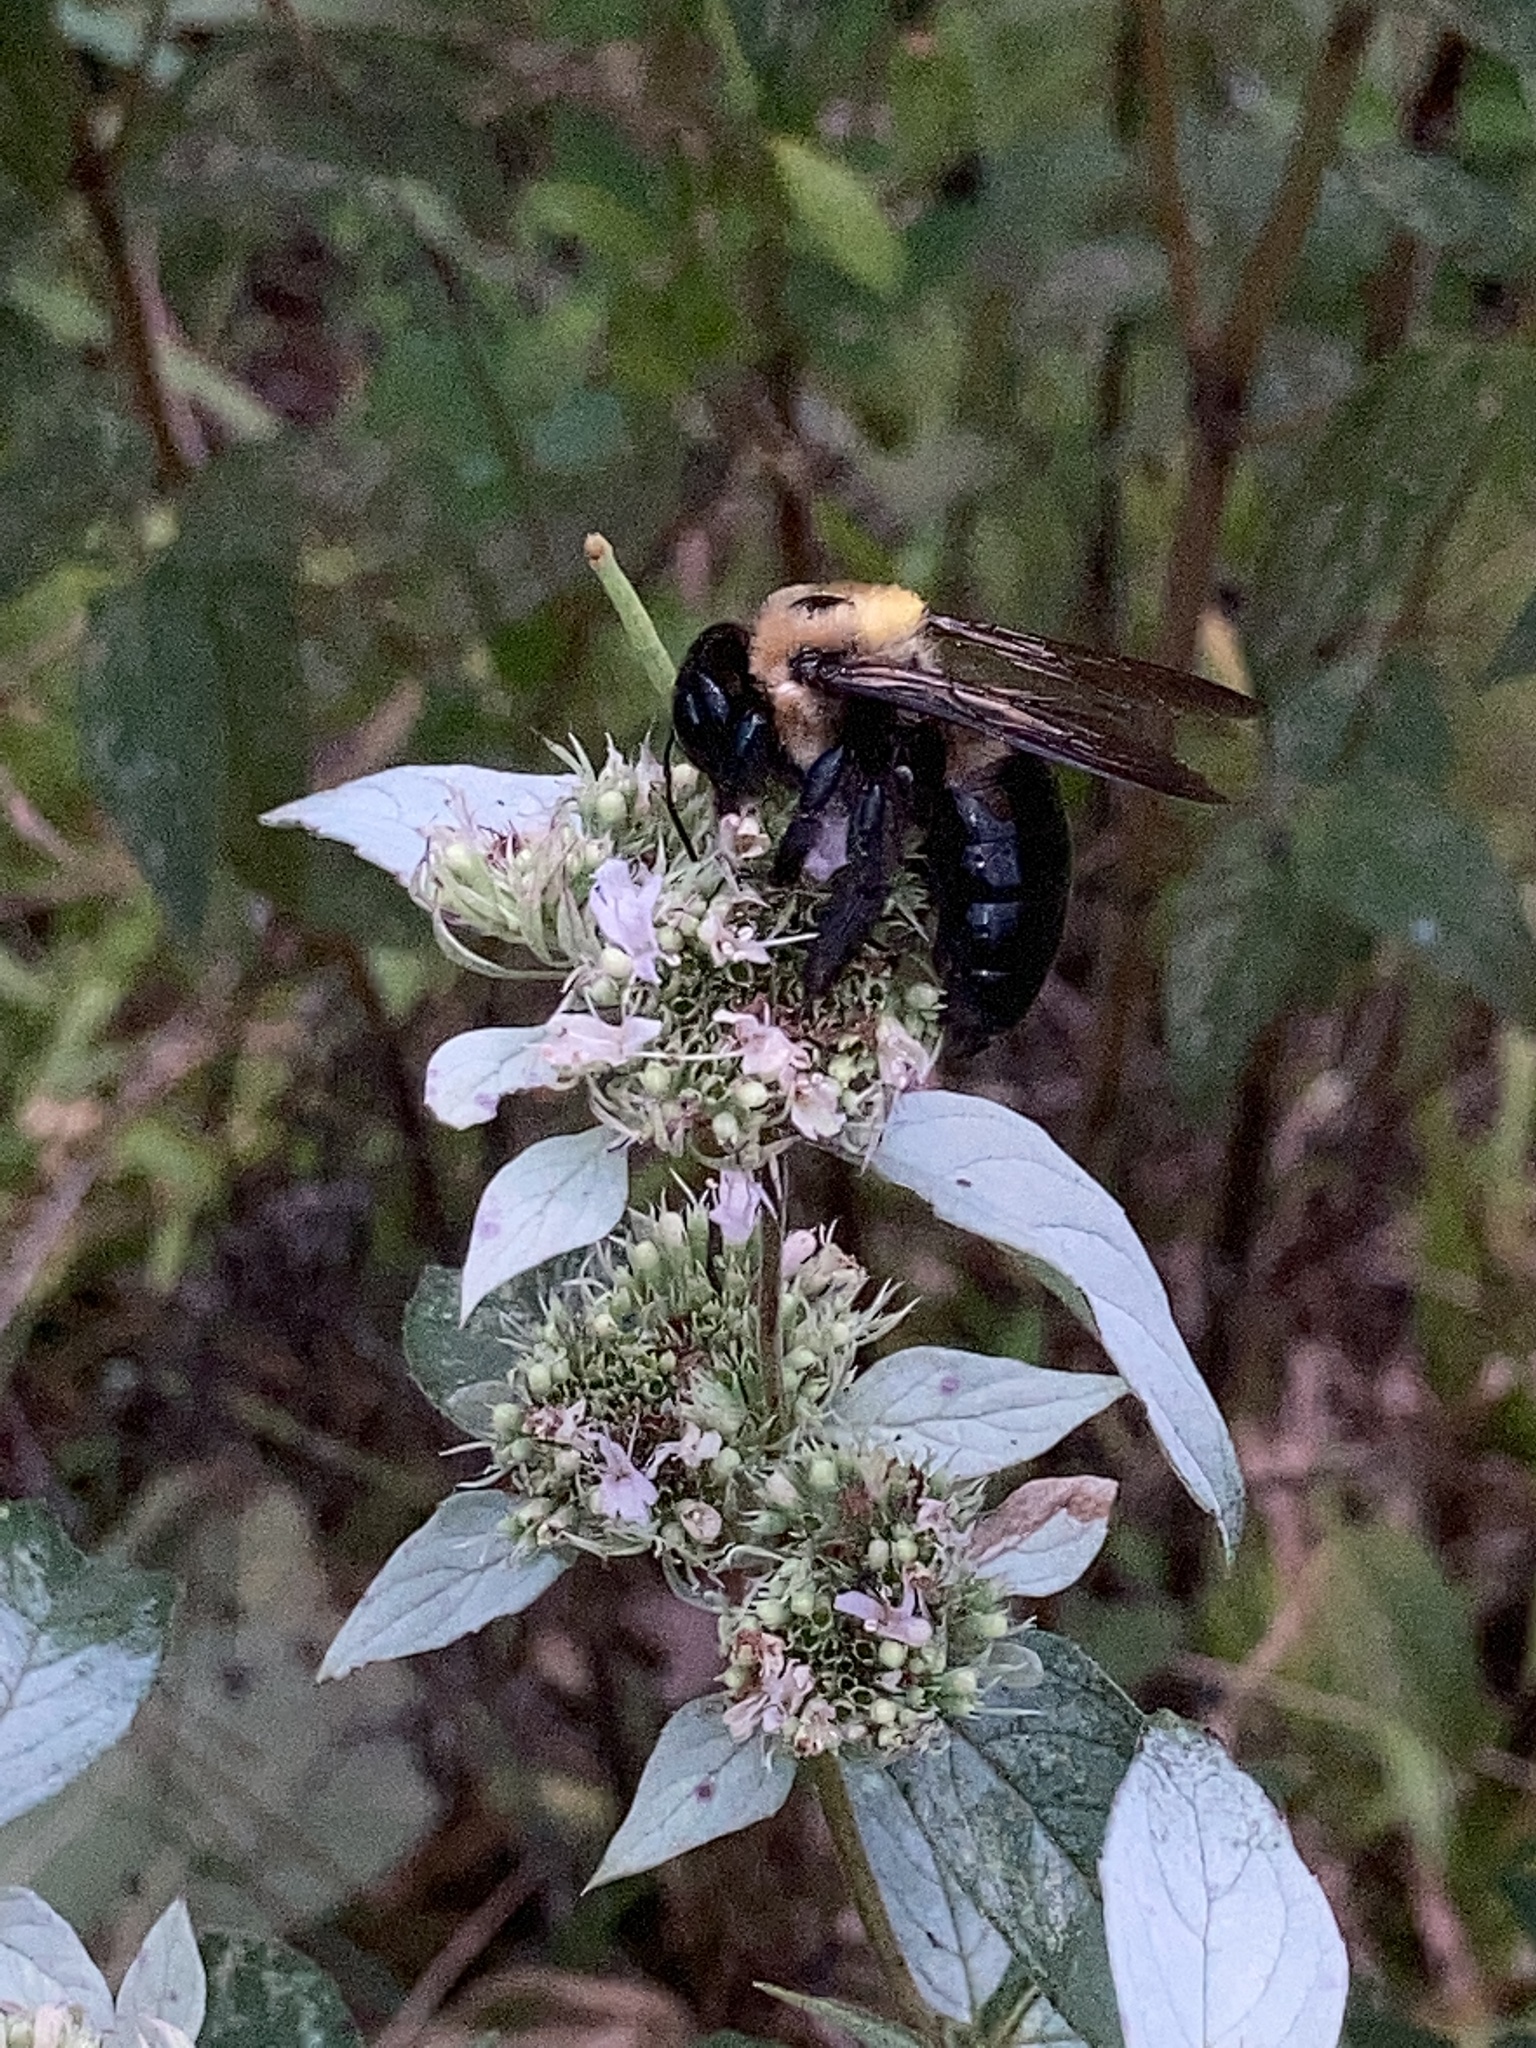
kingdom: Animalia
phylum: Arthropoda
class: Insecta
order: Hymenoptera
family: Apidae
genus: Xylocopa
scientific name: Xylocopa virginica
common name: Carpenter bee
